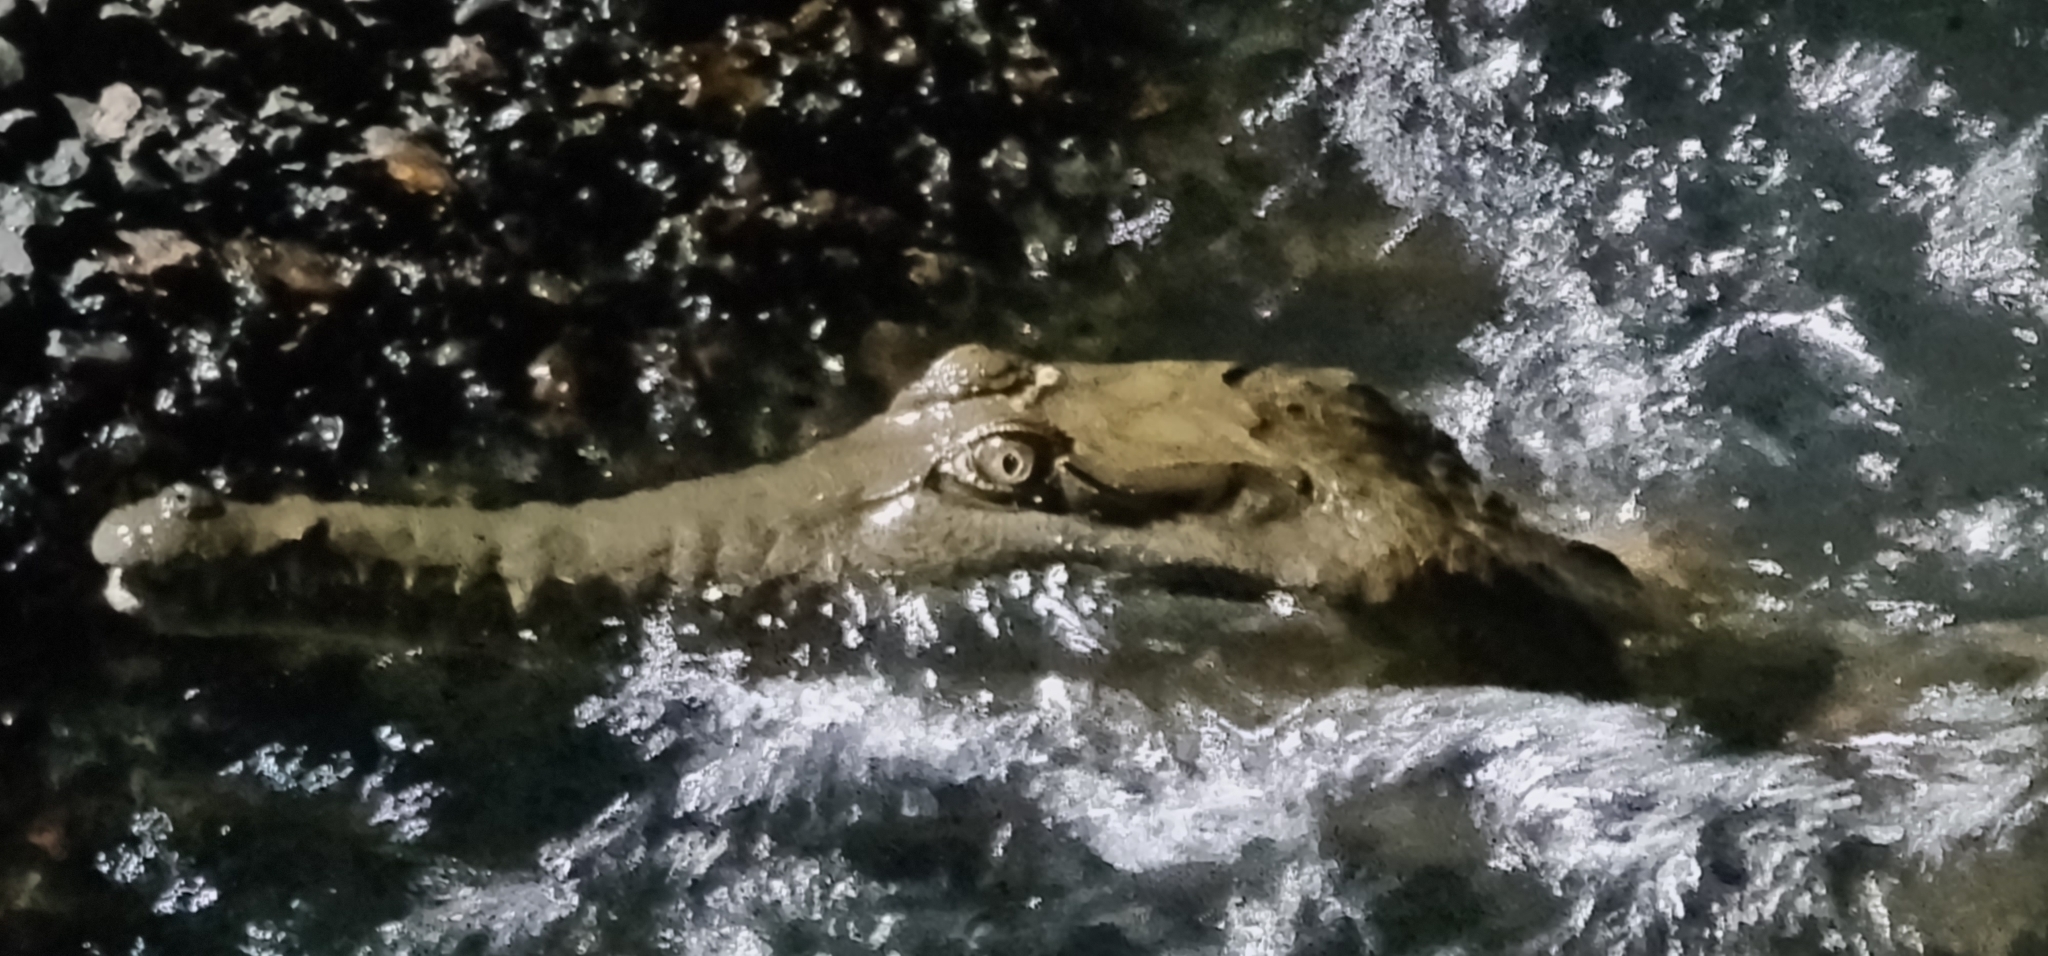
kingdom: Animalia
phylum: Chordata
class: Crocodylia
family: Crocodylidae
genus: Crocodylus
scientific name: Crocodylus johnsoni
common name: Freshwater crocodile
